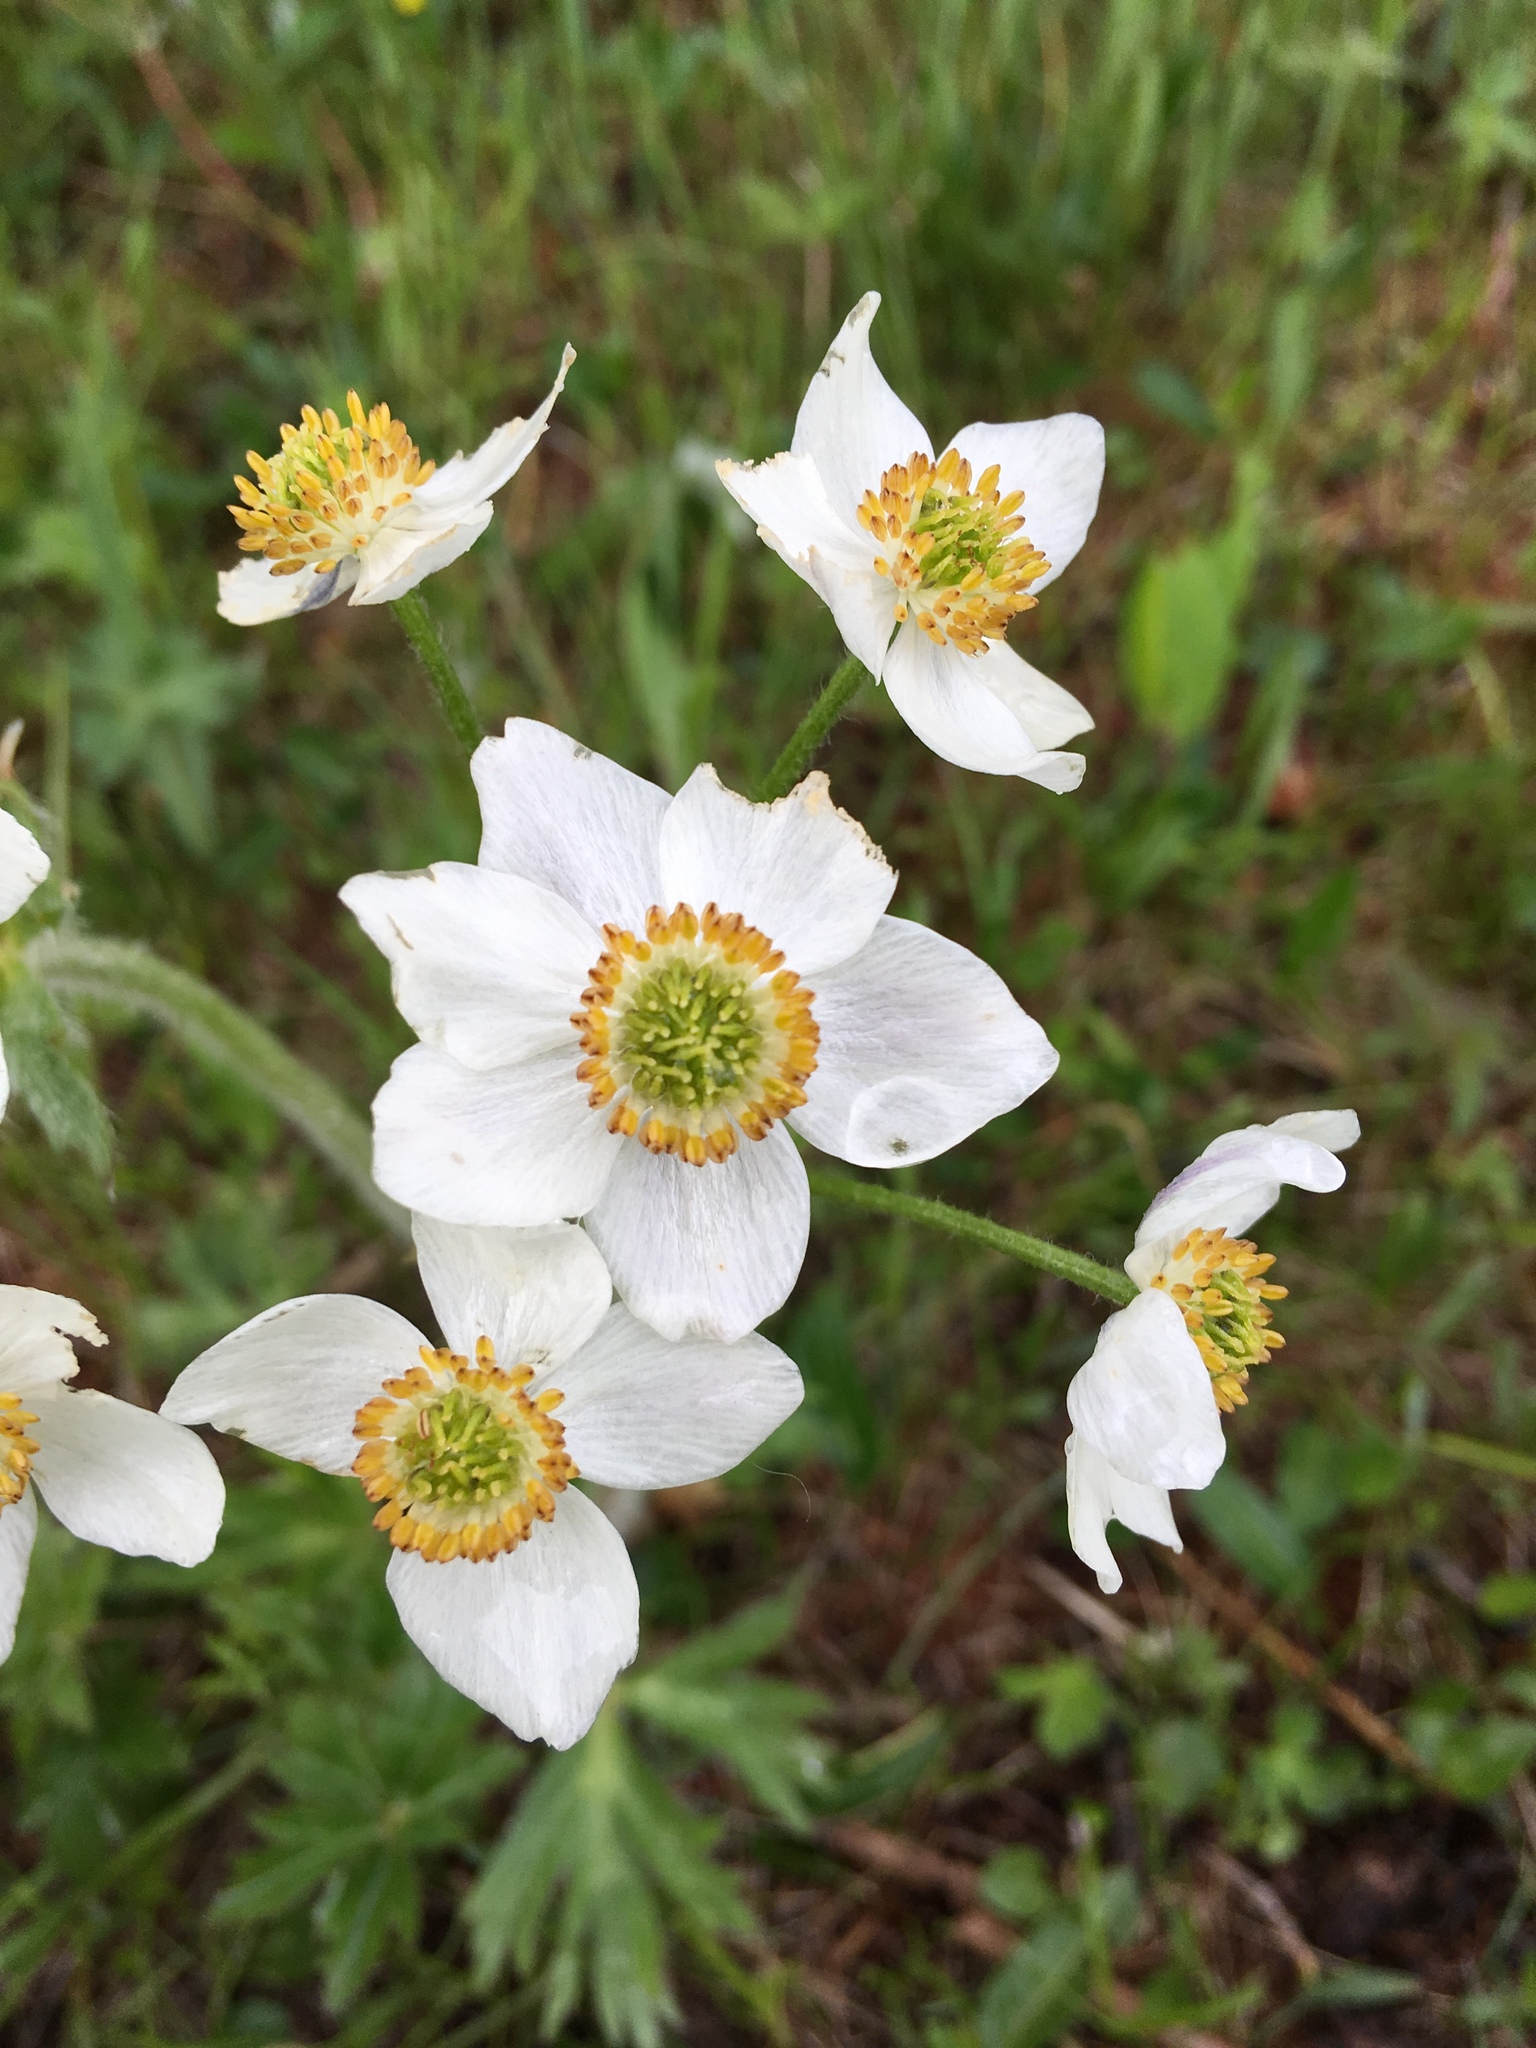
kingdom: Plantae
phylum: Tracheophyta
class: Magnoliopsida
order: Ranunculales
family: Ranunculaceae
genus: Anemonastrum
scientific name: Anemonastrum narcissiflorum
